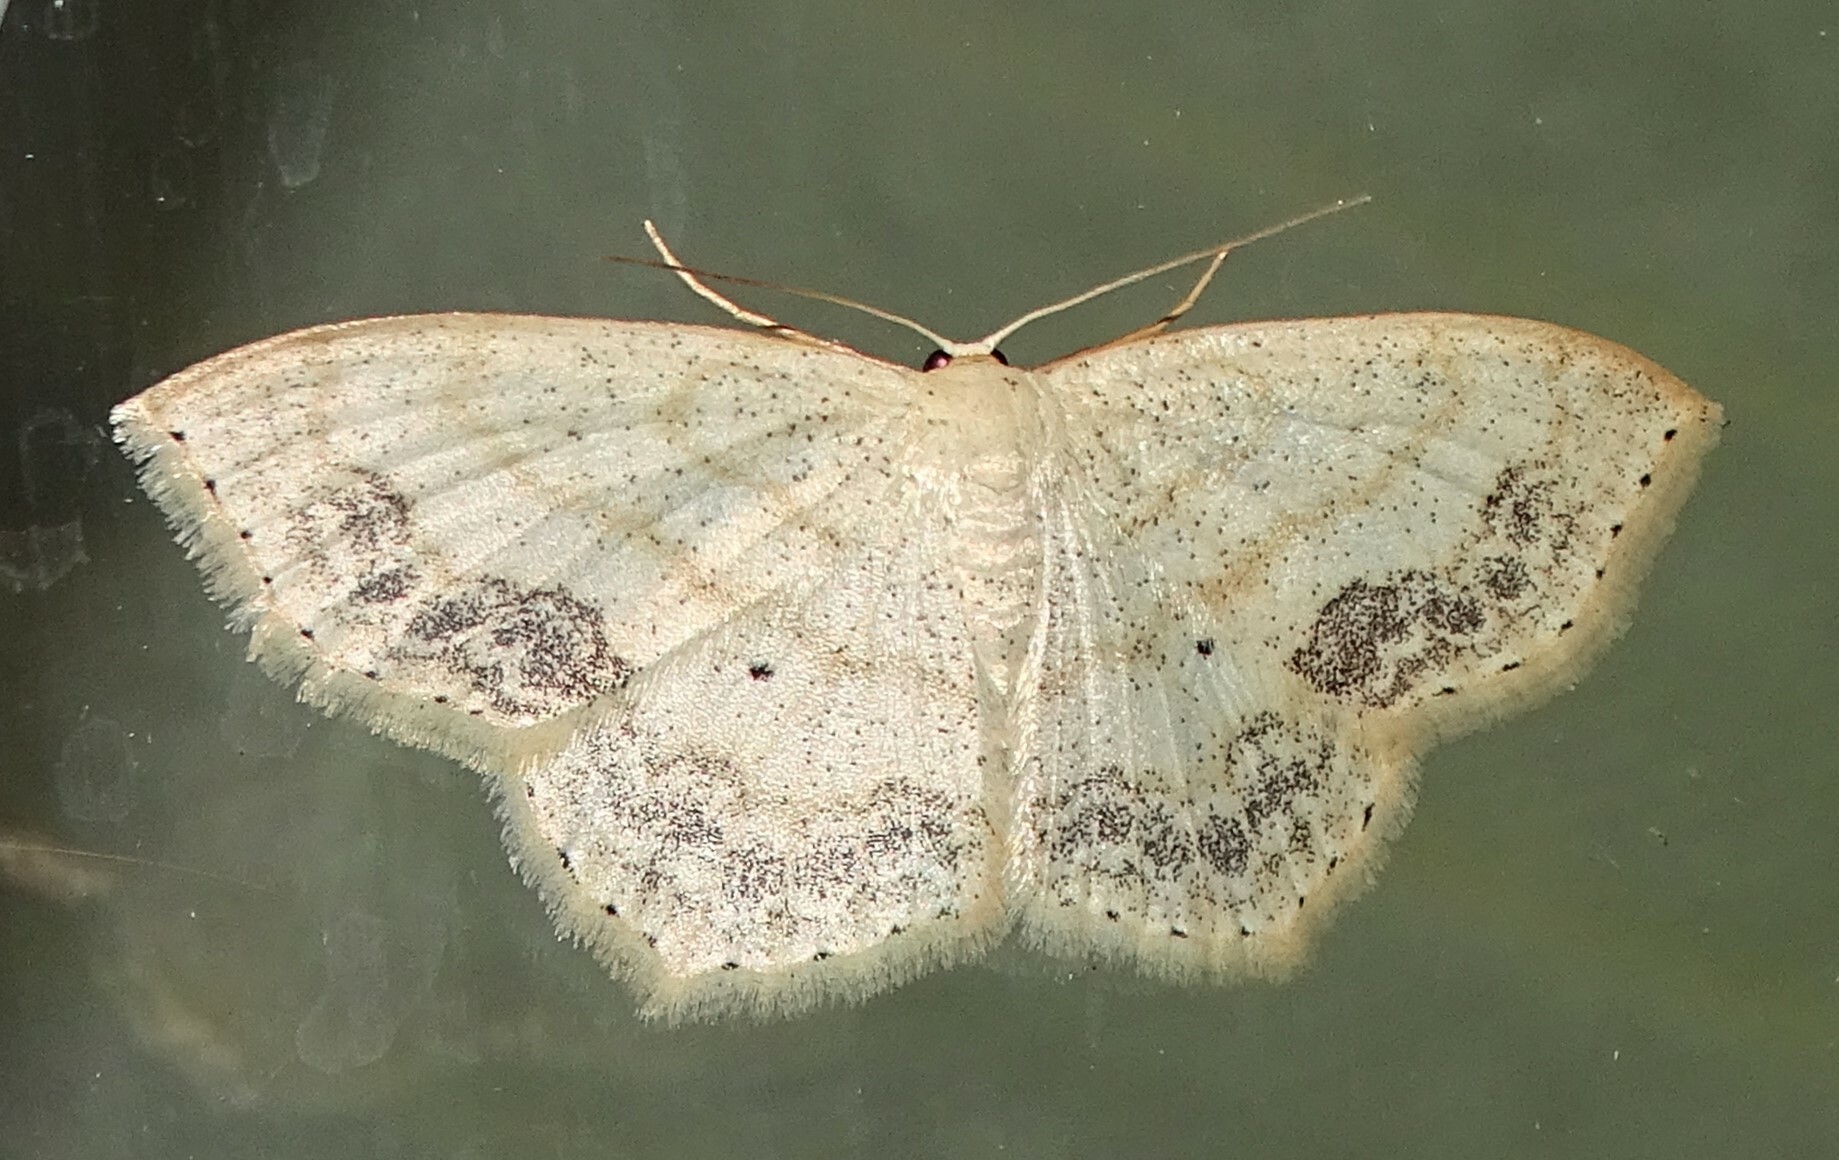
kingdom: Animalia
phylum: Arthropoda
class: Insecta
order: Lepidoptera
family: Geometridae
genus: Scopula
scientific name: Scopula limboundata
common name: Large lace border
